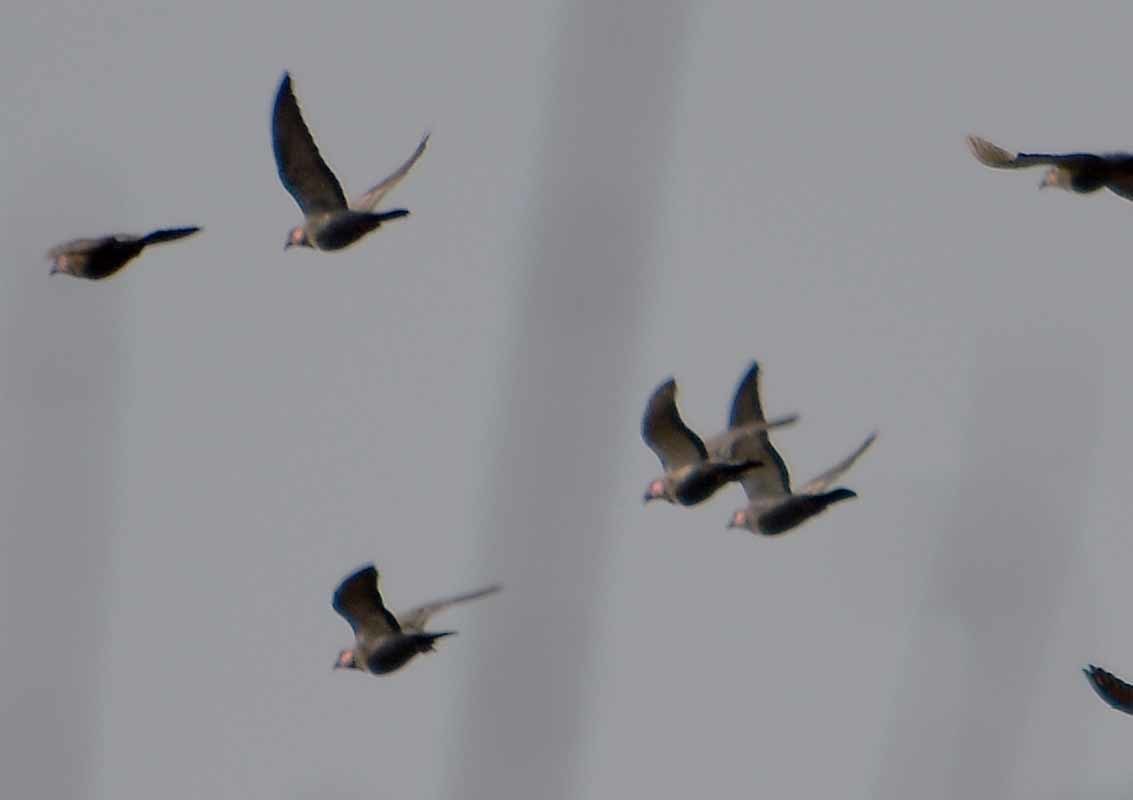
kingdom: Animalia
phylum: Chordata
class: Aves
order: Columbiformes
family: Columbidae
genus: Columba
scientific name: Columba livia
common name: Rock pigeon
